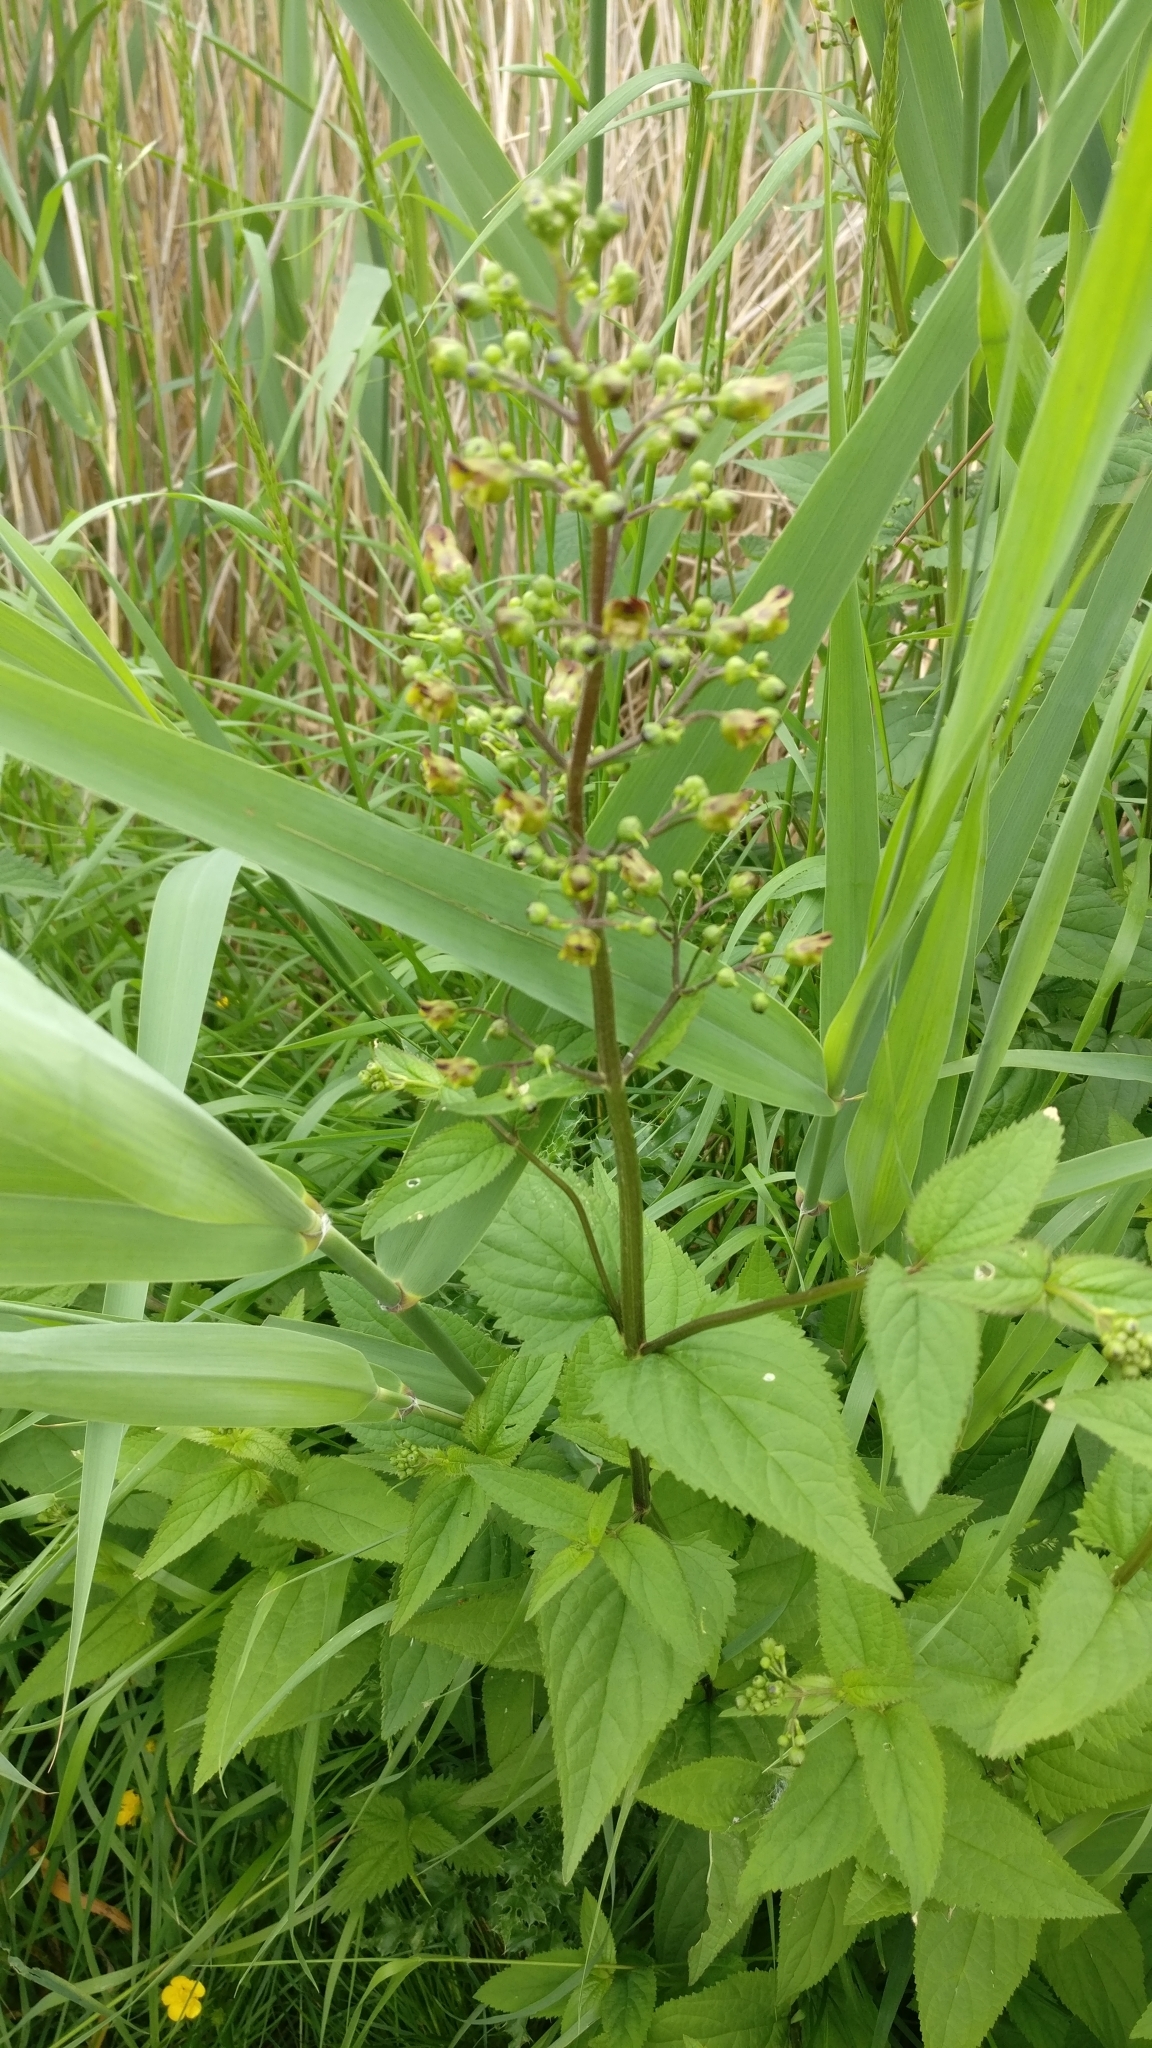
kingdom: Plantae
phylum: Tracheophyta
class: Magnoliopsida
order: Lamiales
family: Scrophulariaceae
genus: Scrophularia
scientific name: Scrophularia nodosa
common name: Common figwort
